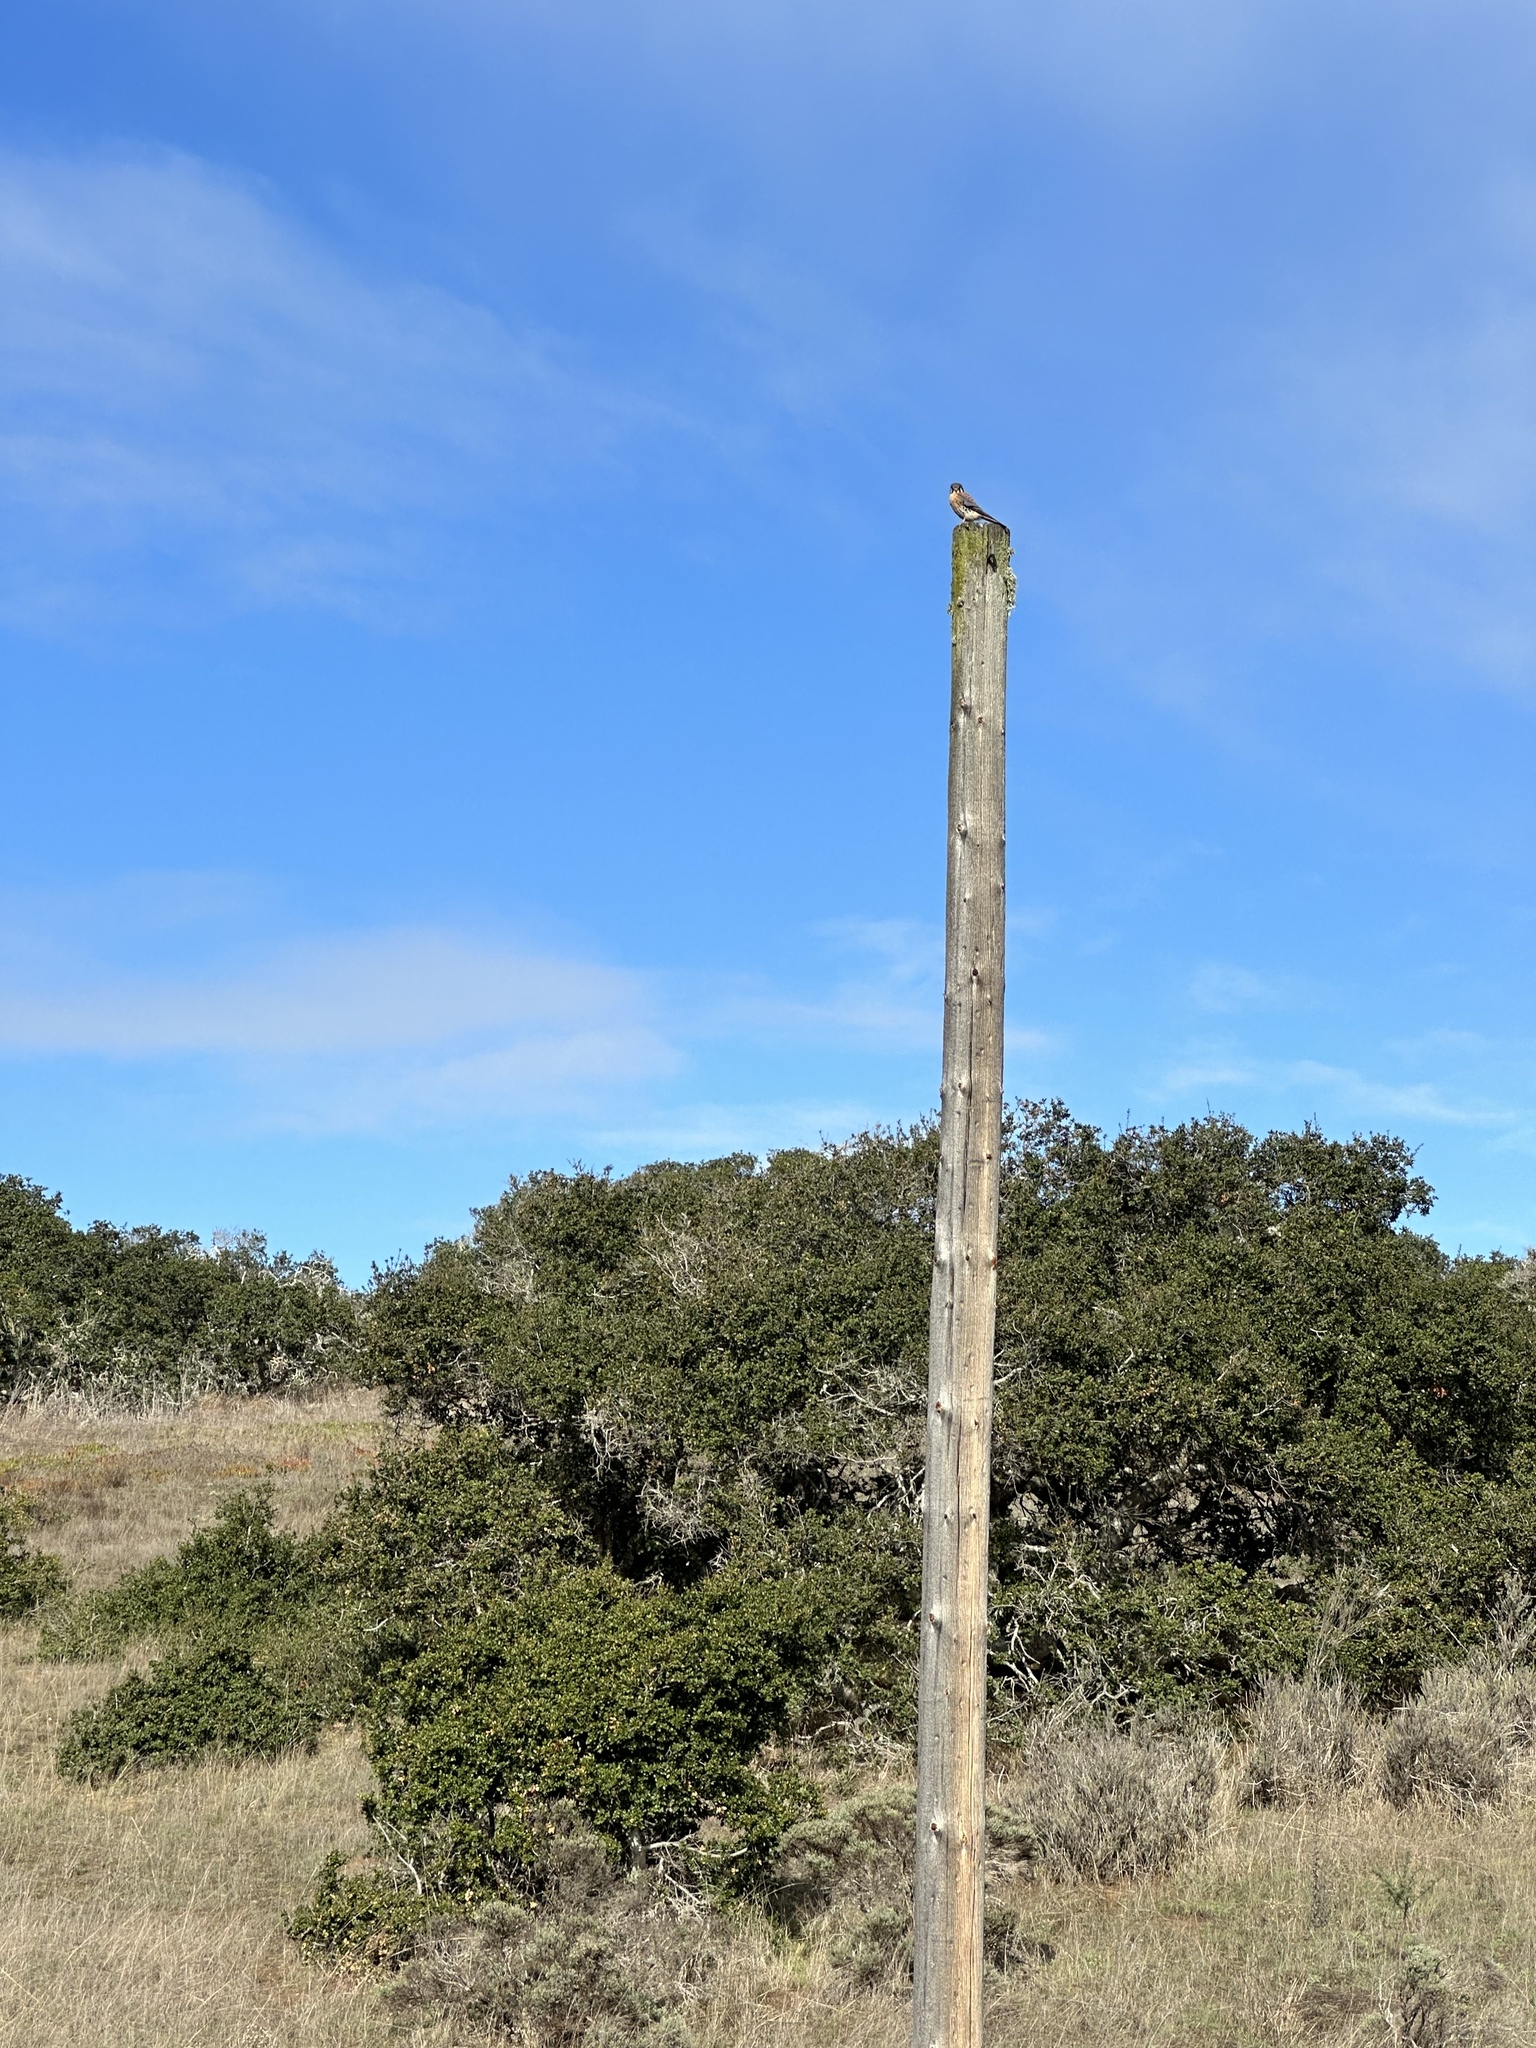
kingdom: Animalia
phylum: Chordata
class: Aves
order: Falconiformes
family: Falconidae
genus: Falco
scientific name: Falco sparverius
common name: American kestrel
